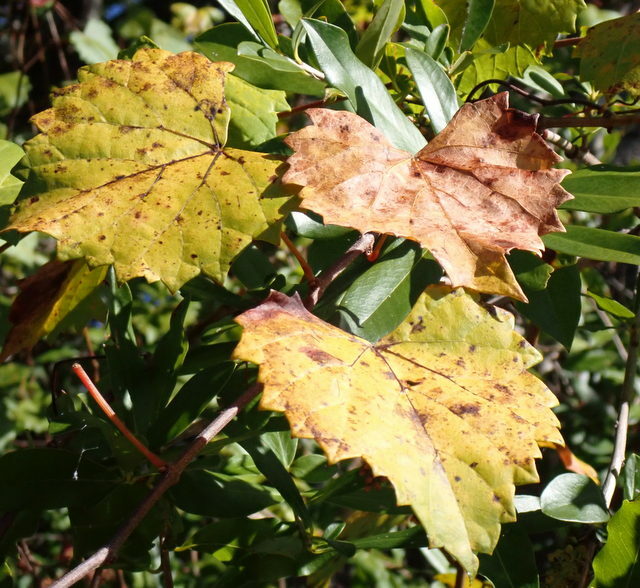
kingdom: Plantae
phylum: Tracheophyta
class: Magnoliopsida
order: Vitales
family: Vitaceae
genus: Vitis
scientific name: Vitis rotundifolia
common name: Muscadine grape
